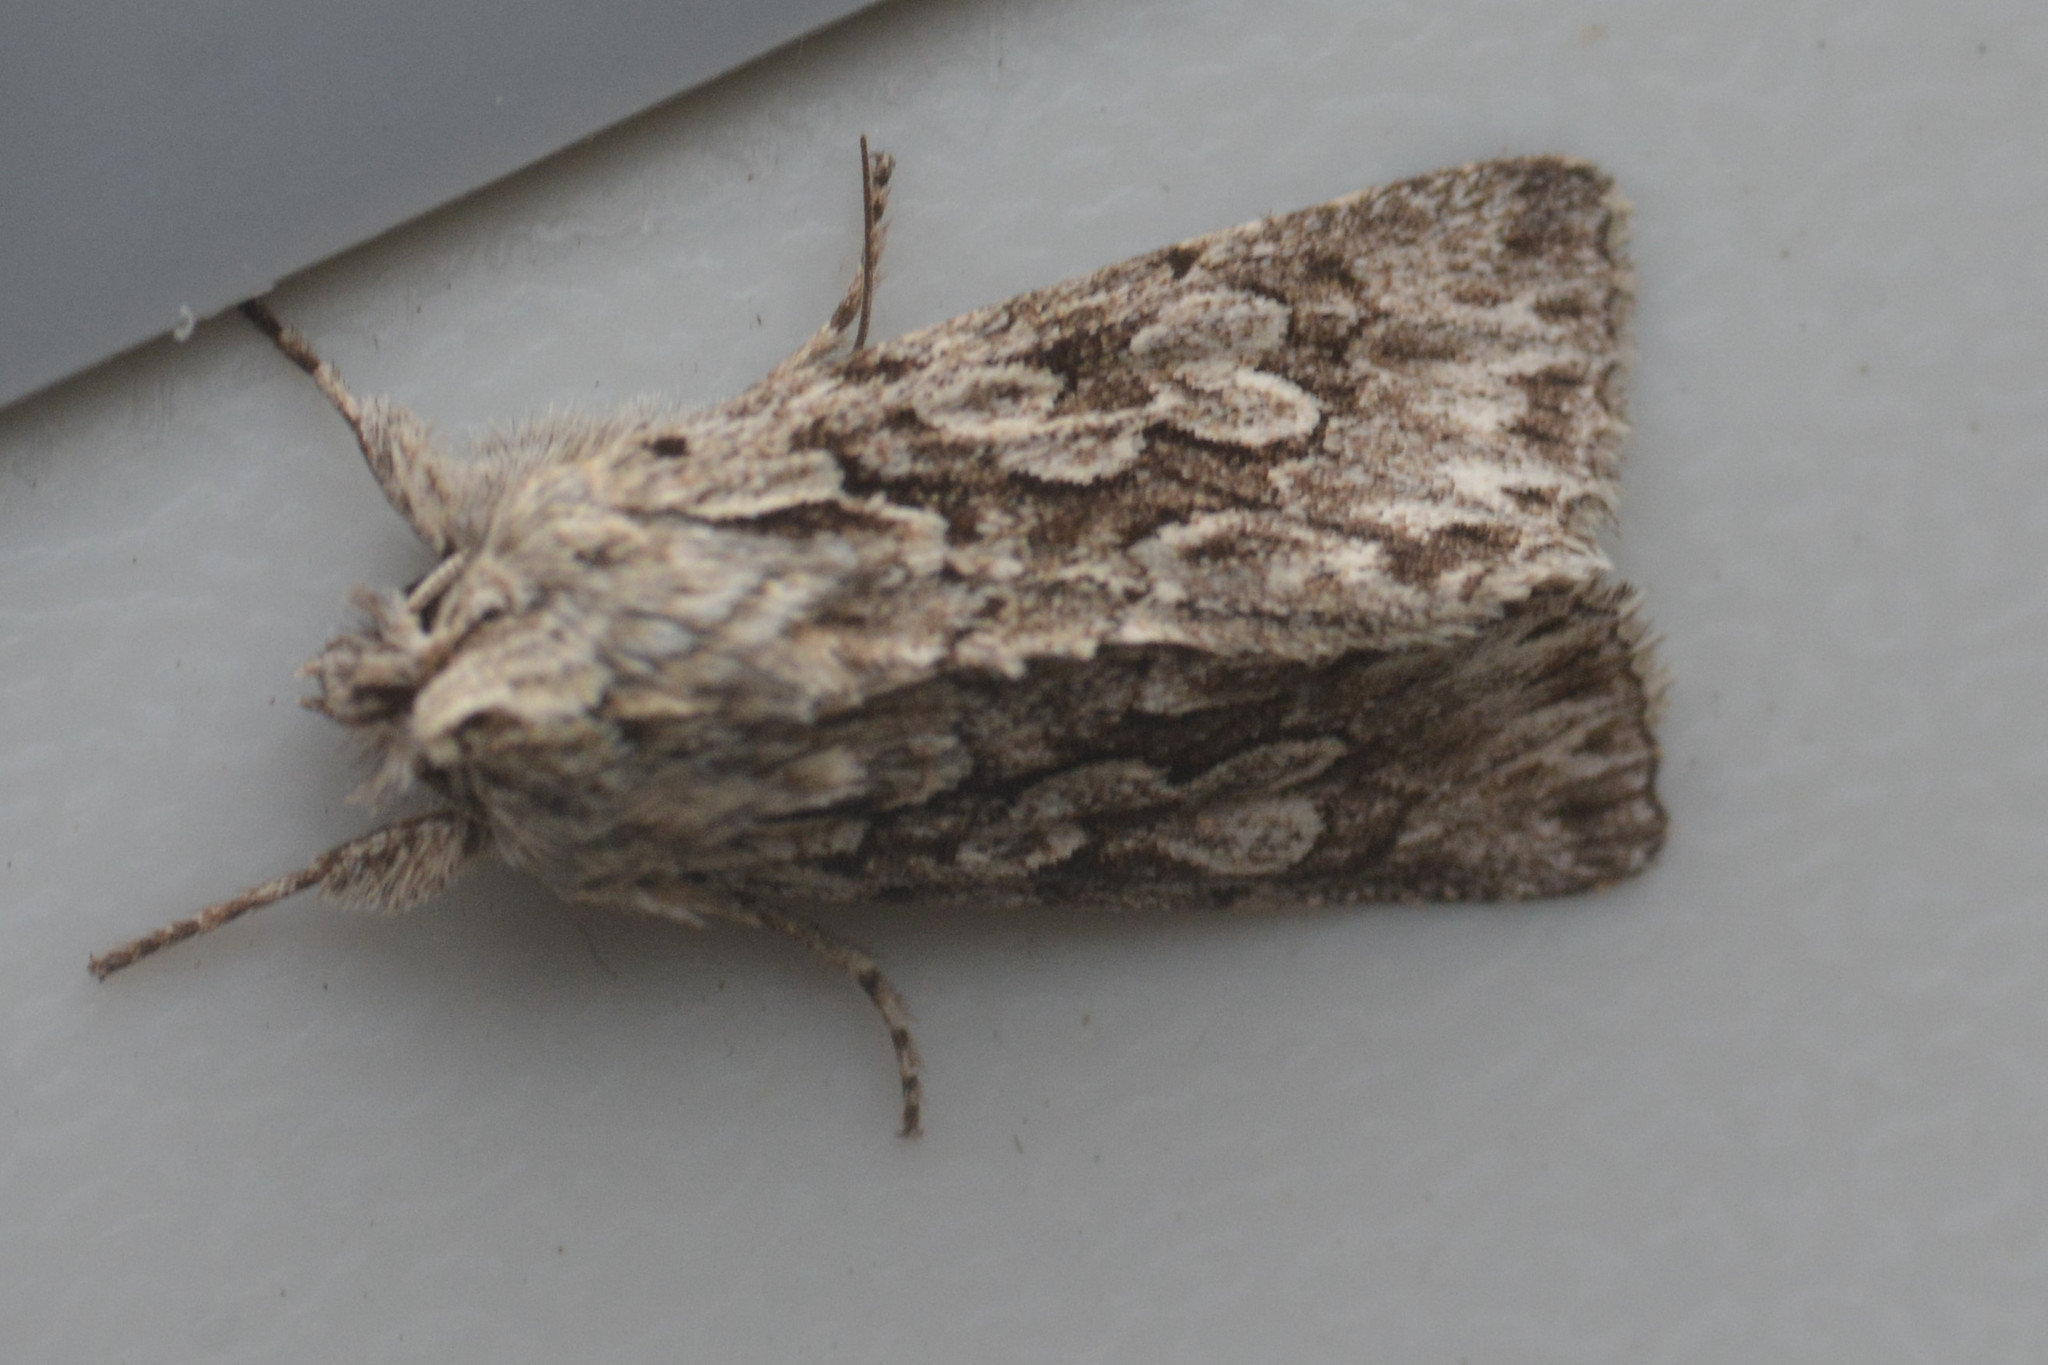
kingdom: Animalia
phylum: Arthropoda
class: Insecta
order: Lepidoptera
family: Noctuidae
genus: Xylocampa
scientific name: Xylocampa areola
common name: Early grey
